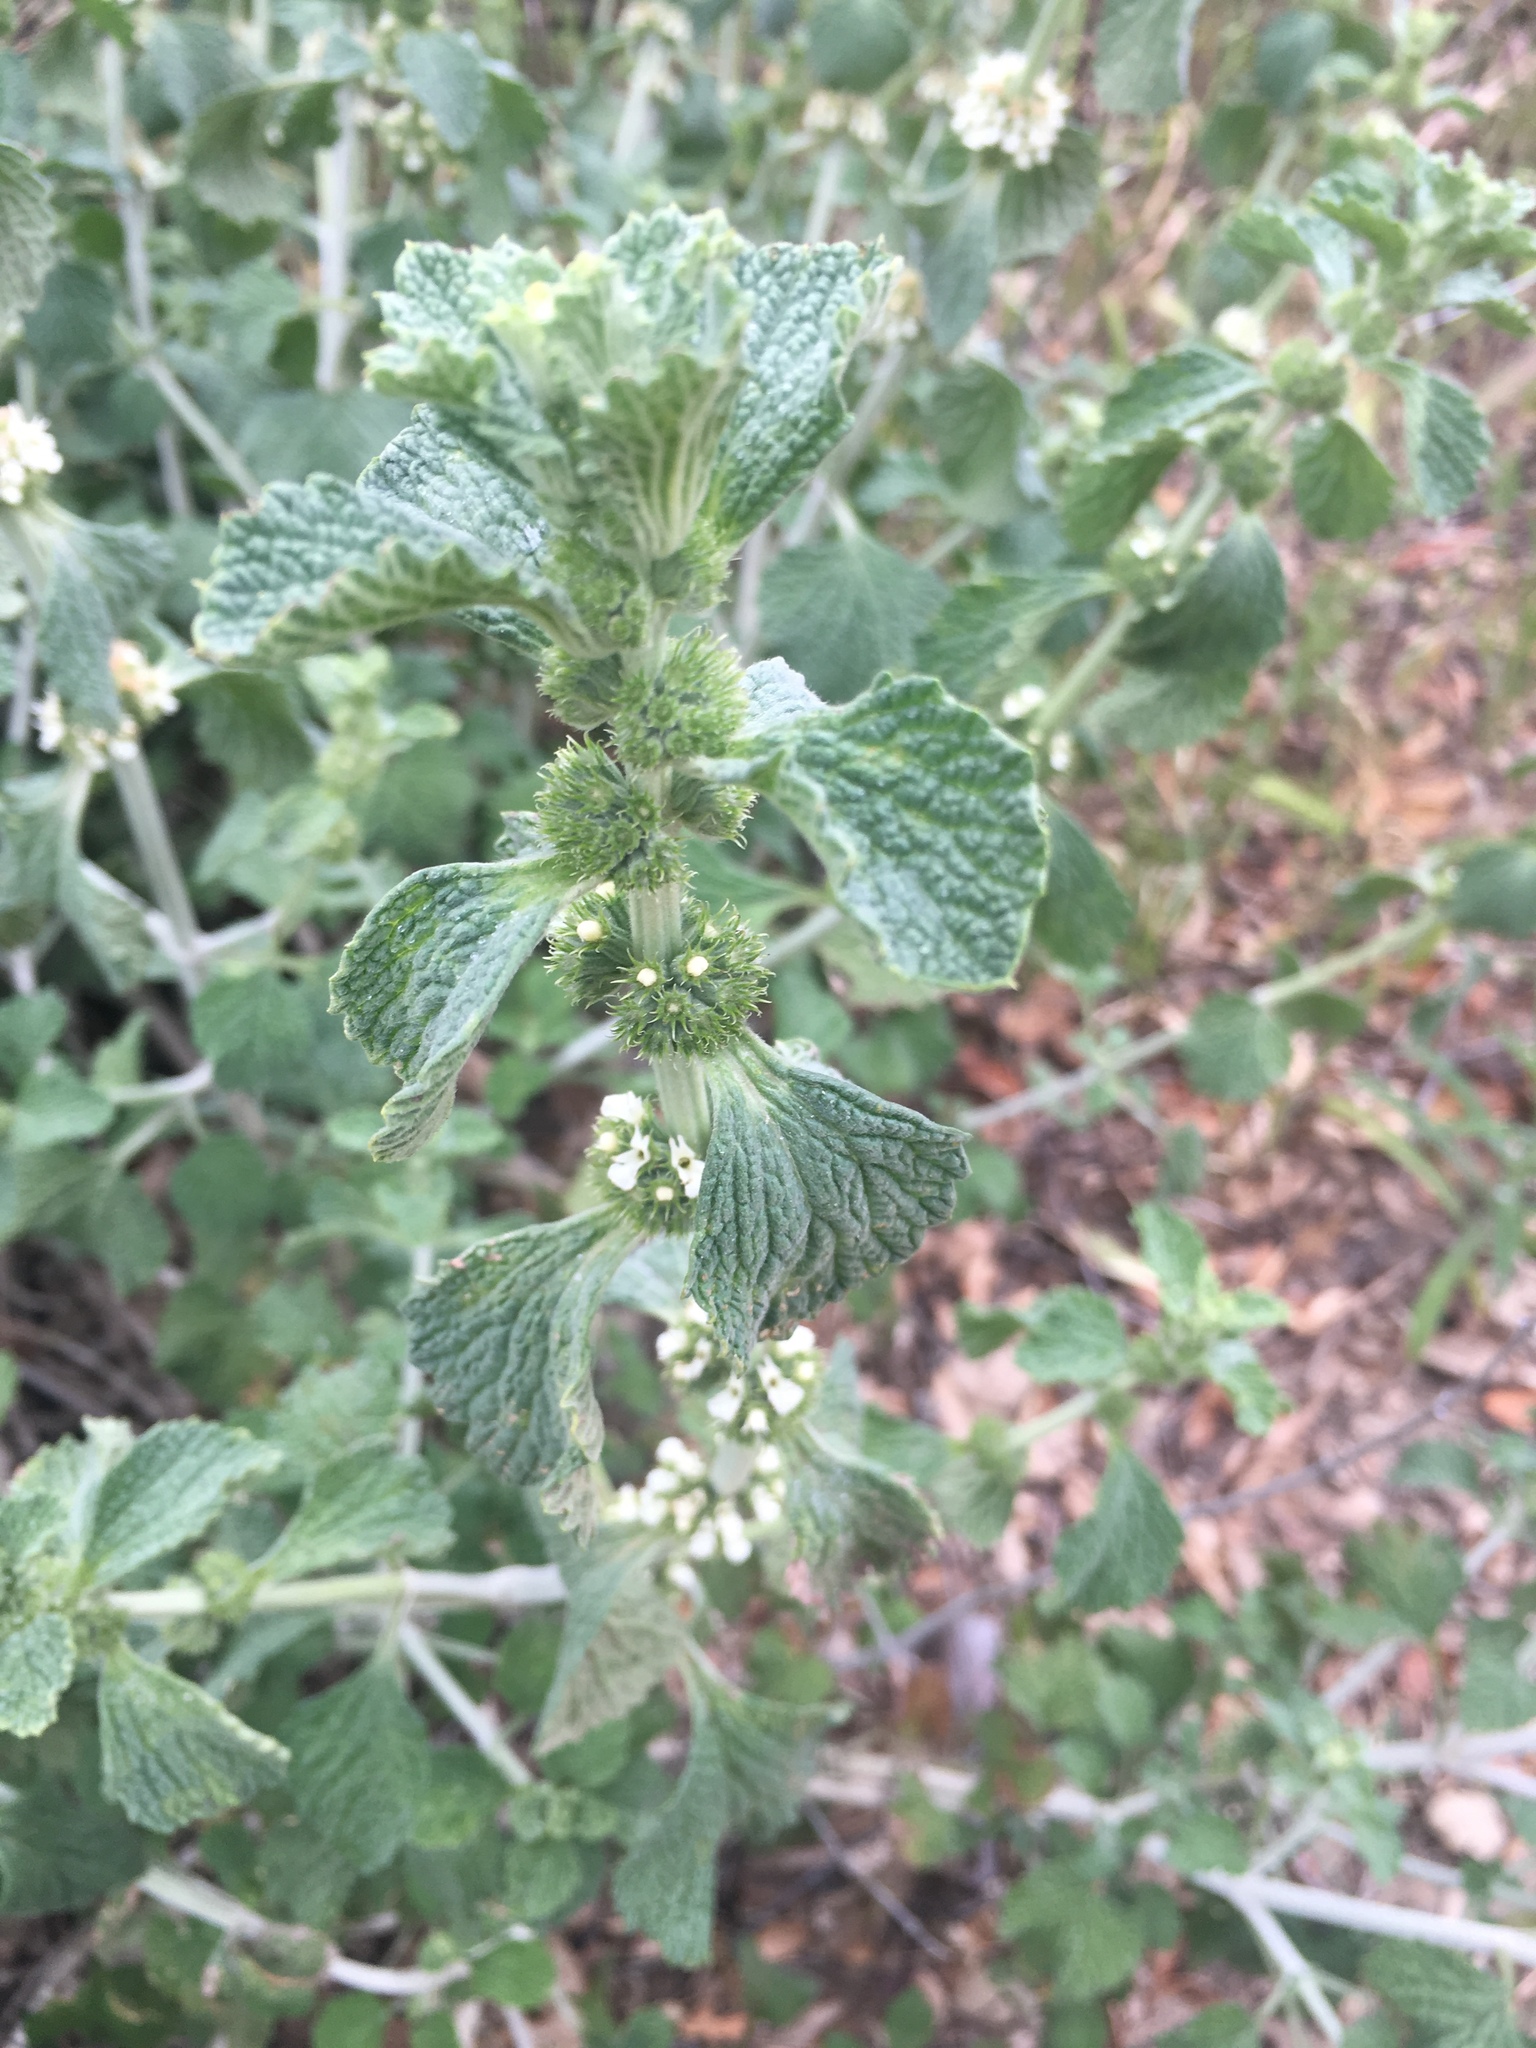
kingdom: Plantae
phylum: Tracheophyta
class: Magnoliopsida
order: Lamiales
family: Lamiaceae
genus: Marrubium
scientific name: Marrubium vulgare
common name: Horehound
